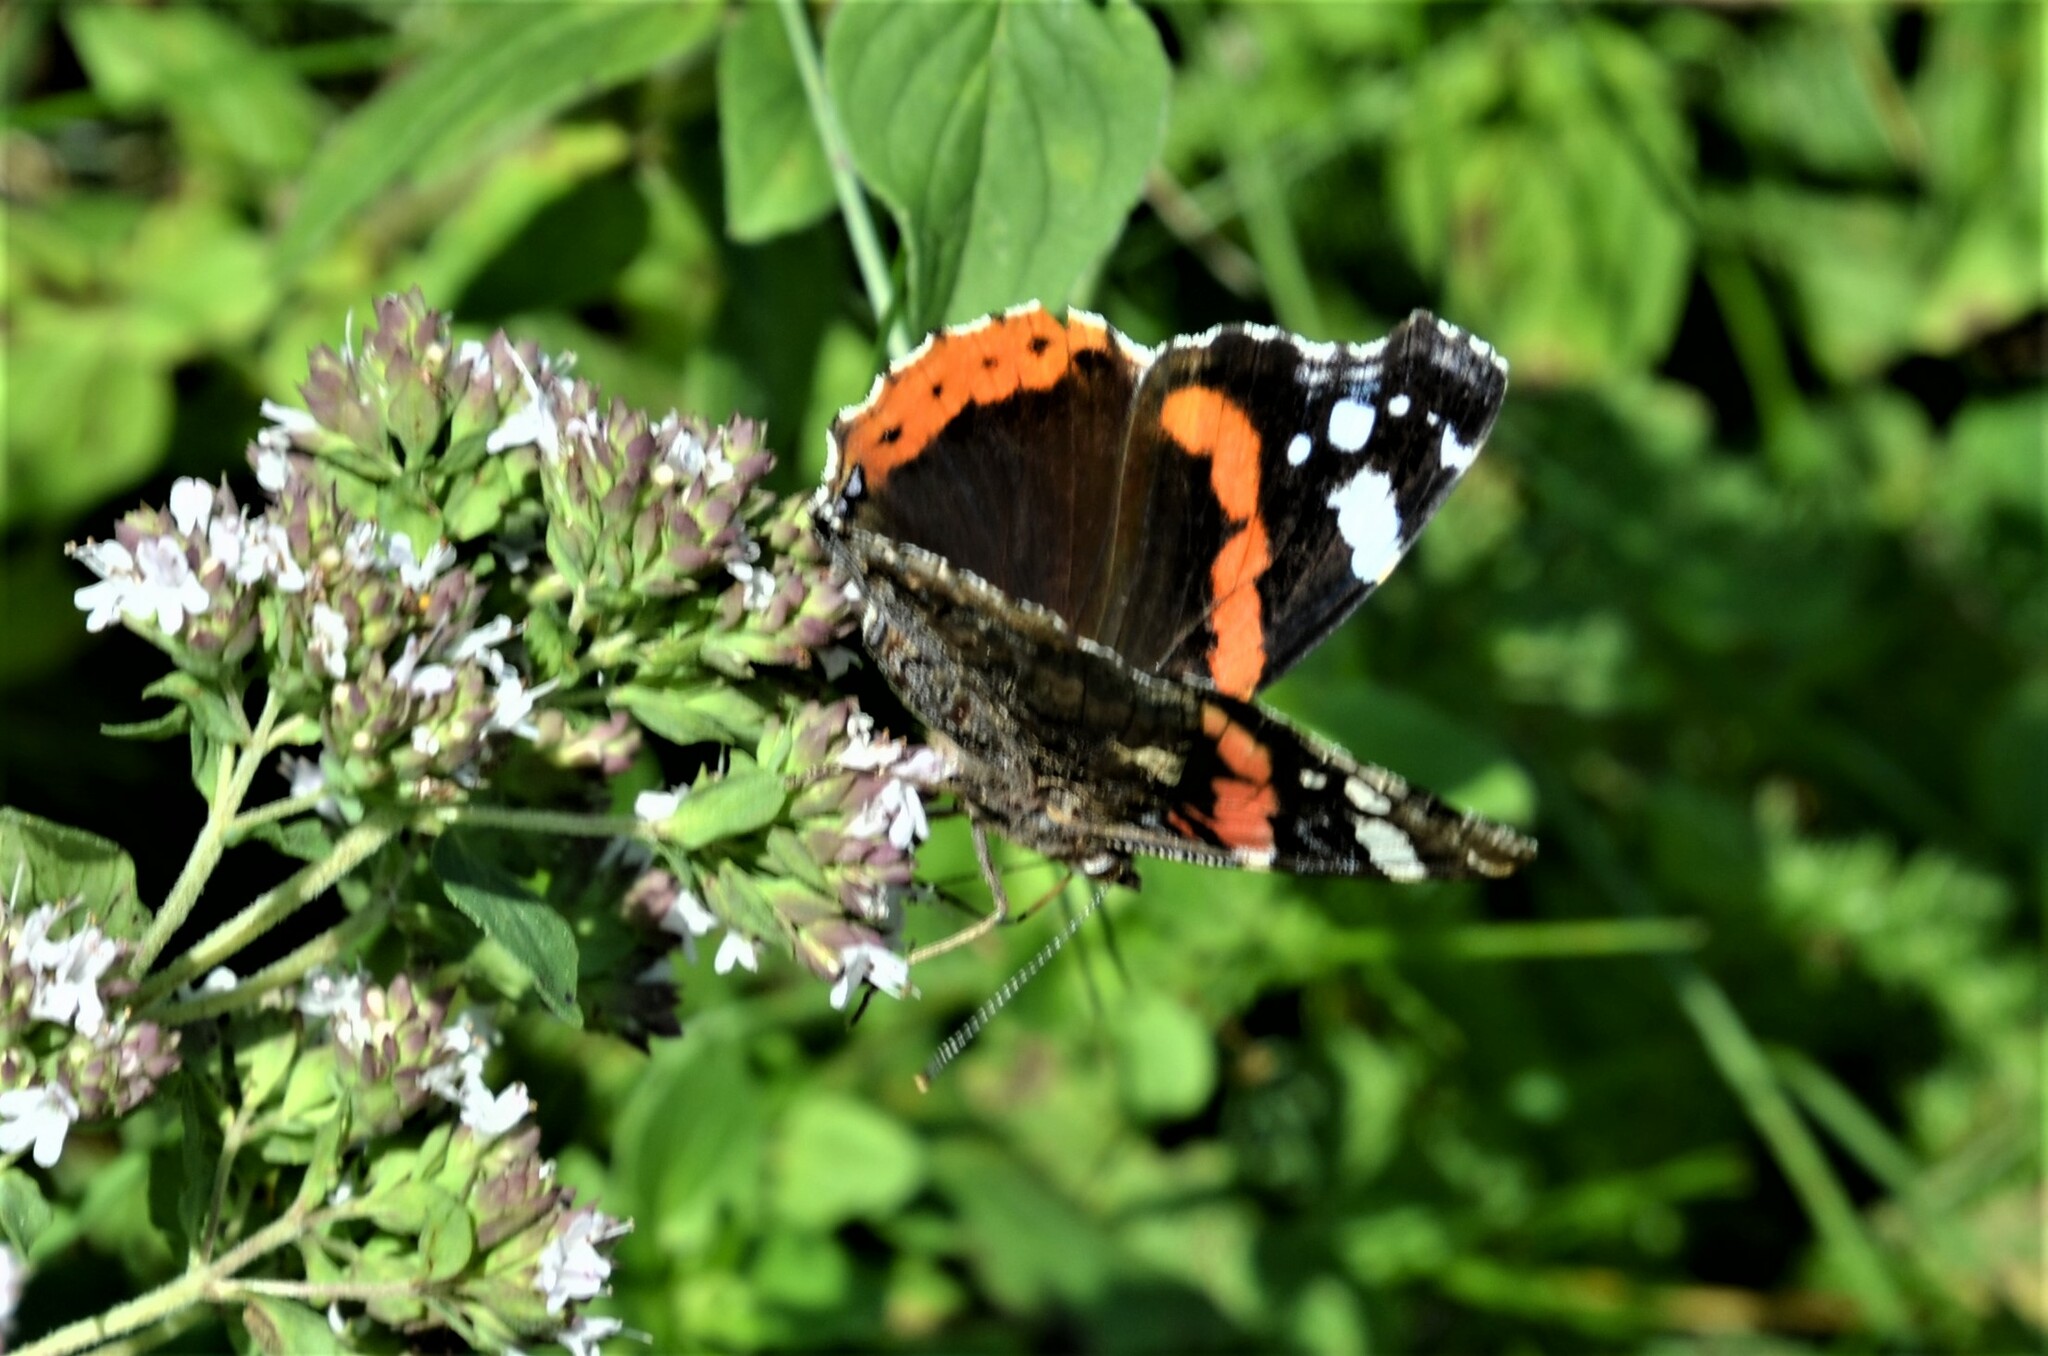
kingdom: Animalia
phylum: Arthropoda
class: Insecta
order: Lepidoptera
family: Nymphalidae
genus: Vanessa
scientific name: Vanessa atalanta
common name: Red admiral
